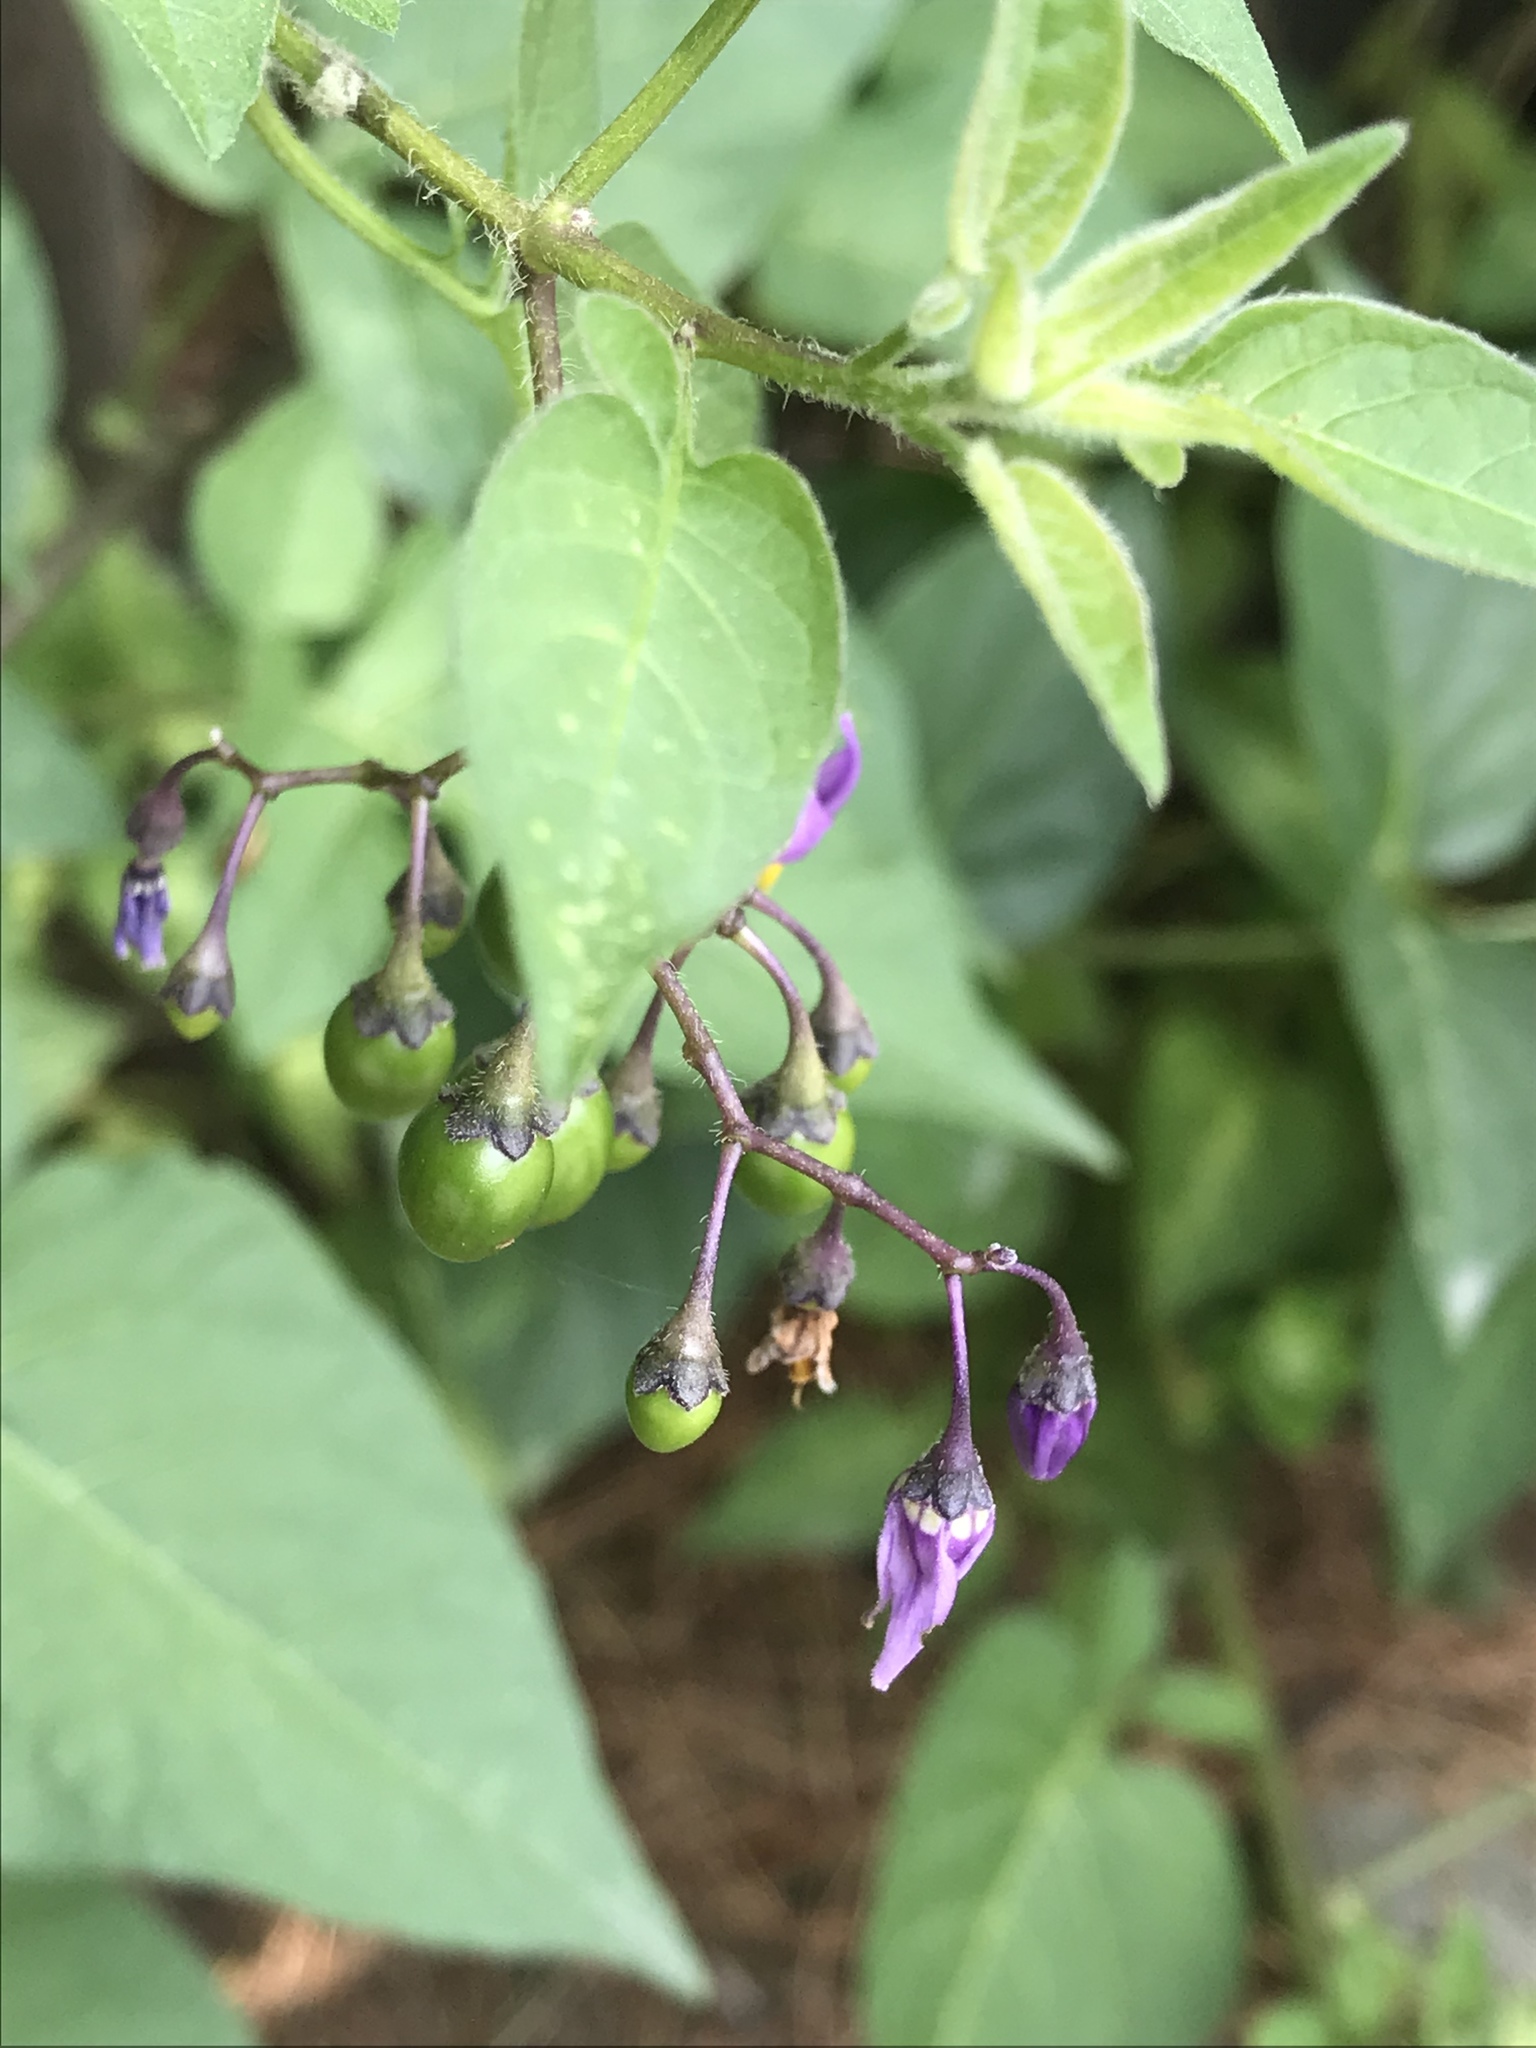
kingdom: Plantae
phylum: Tracheophyta
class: Magnoliopsida
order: Solanales
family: Solanaceae
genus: Solanum
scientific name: Solanum dulcamara
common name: Climbing nightshade
